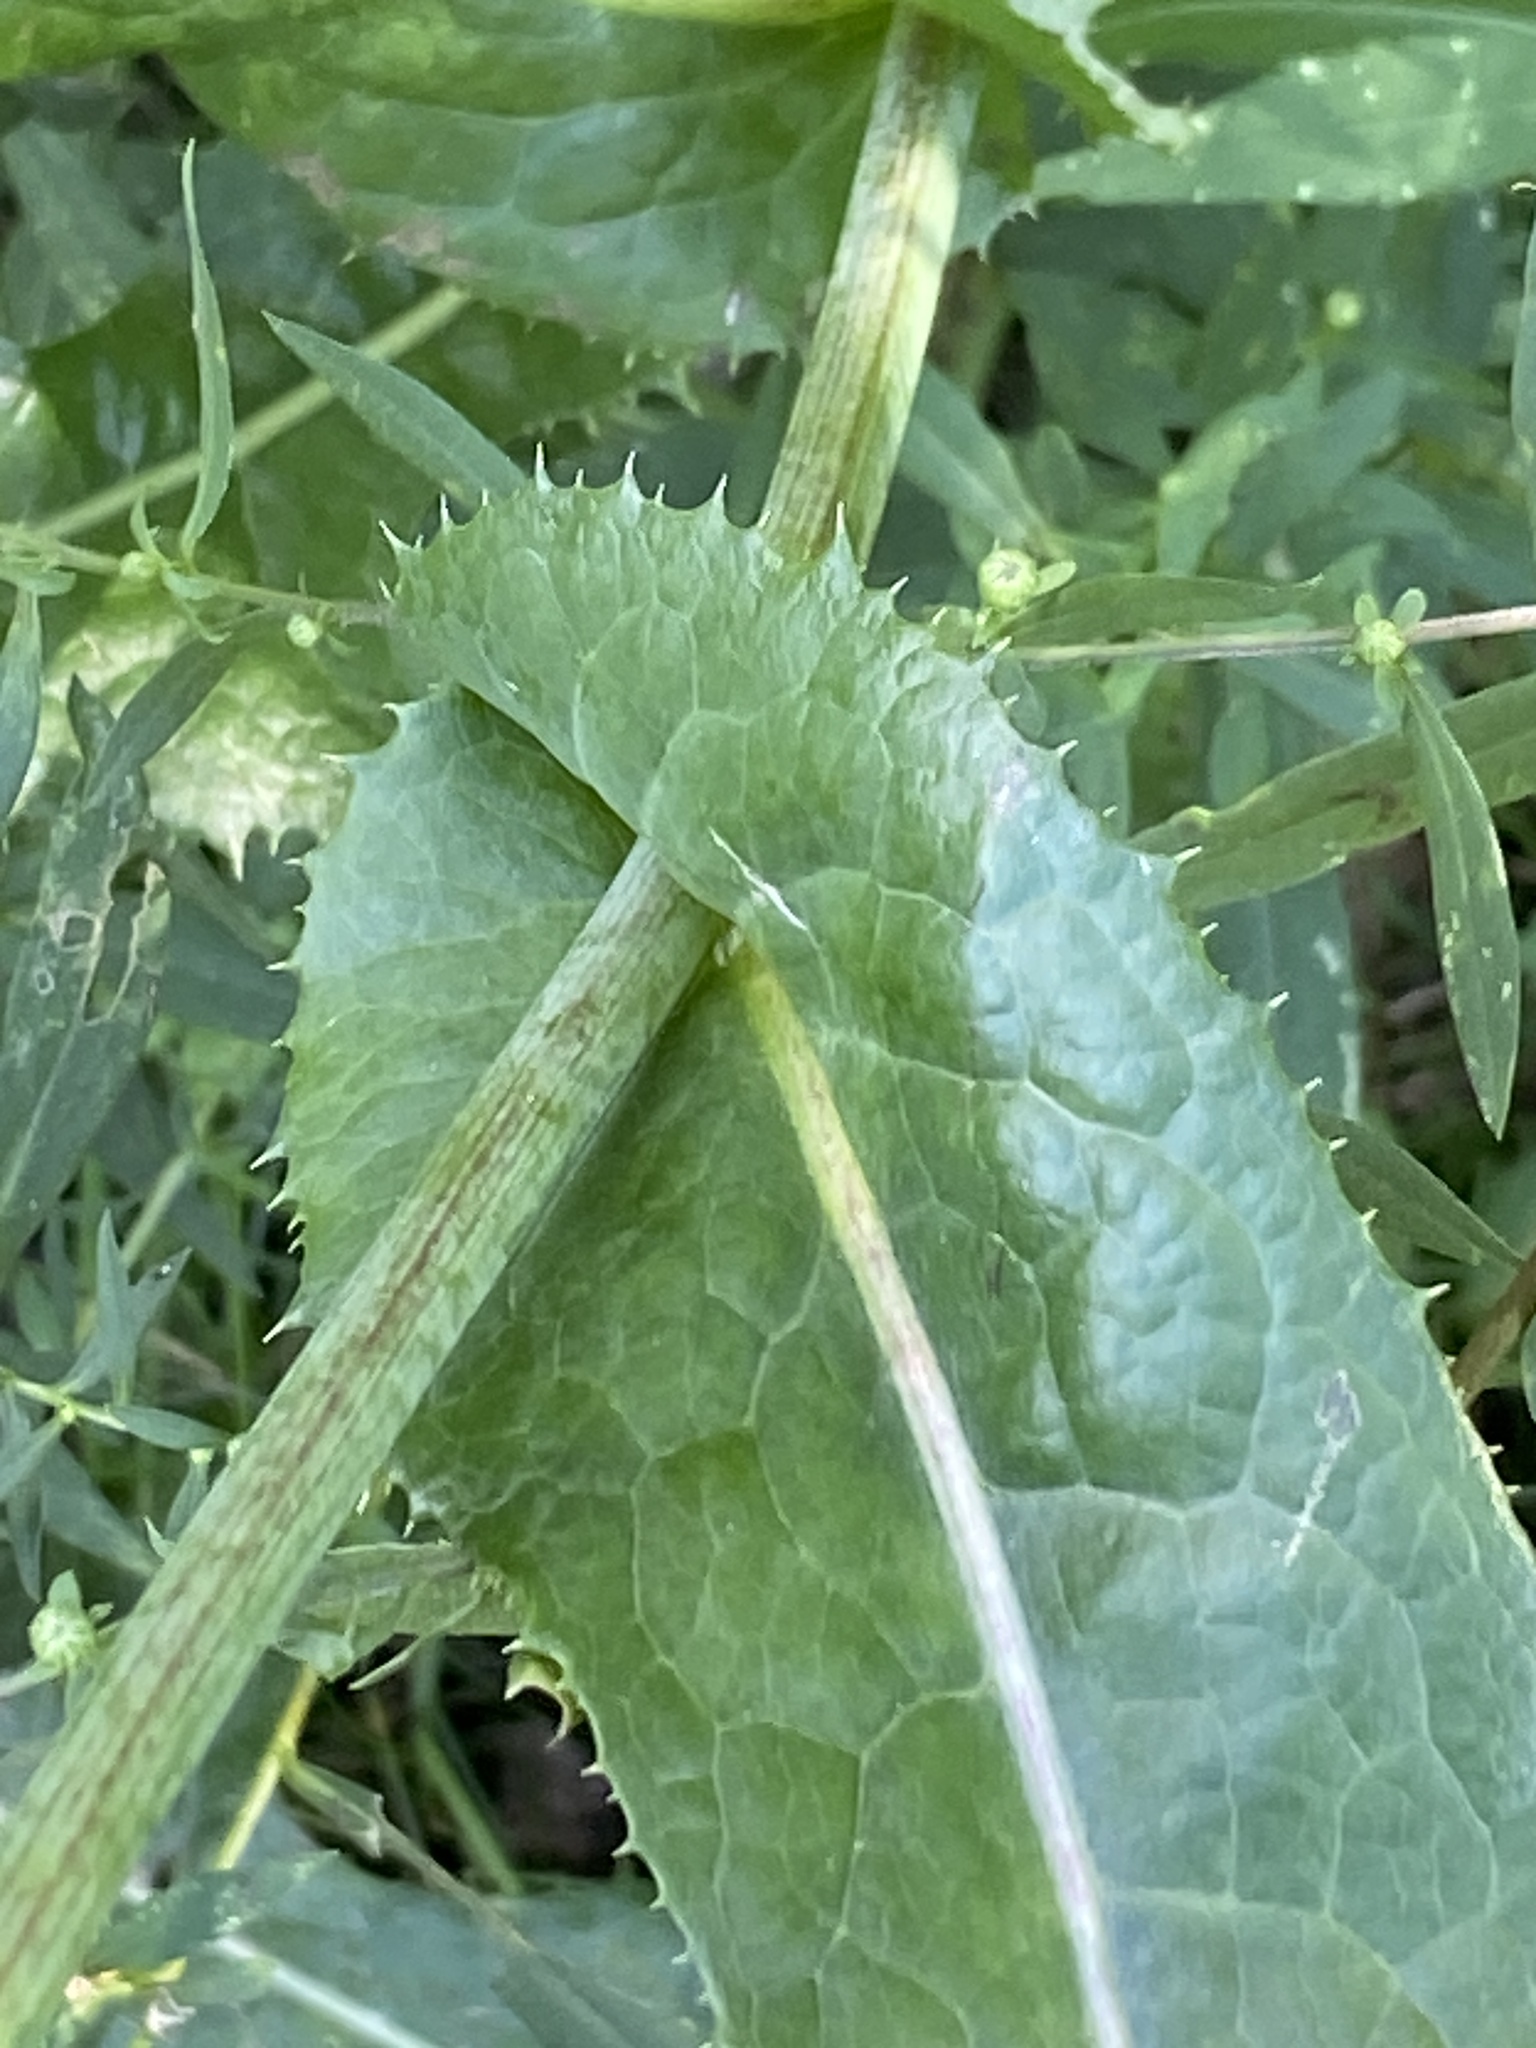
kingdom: Plantae
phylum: Tracheophyta
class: Magnoliopsida
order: Asterales
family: Asteraceae
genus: Sonchus
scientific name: Sonchus arvensis
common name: Perennial sow-thistle
